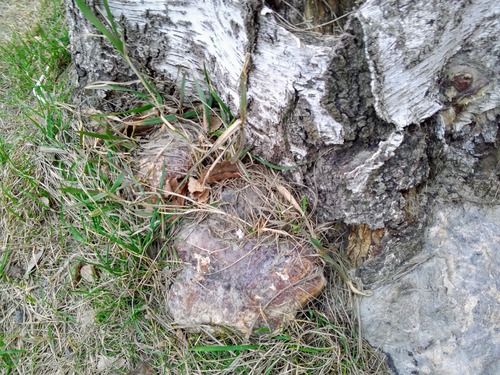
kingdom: Fungi
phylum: Basidiomycota
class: Agaricomycetes
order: Polyporales
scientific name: Polyporales
